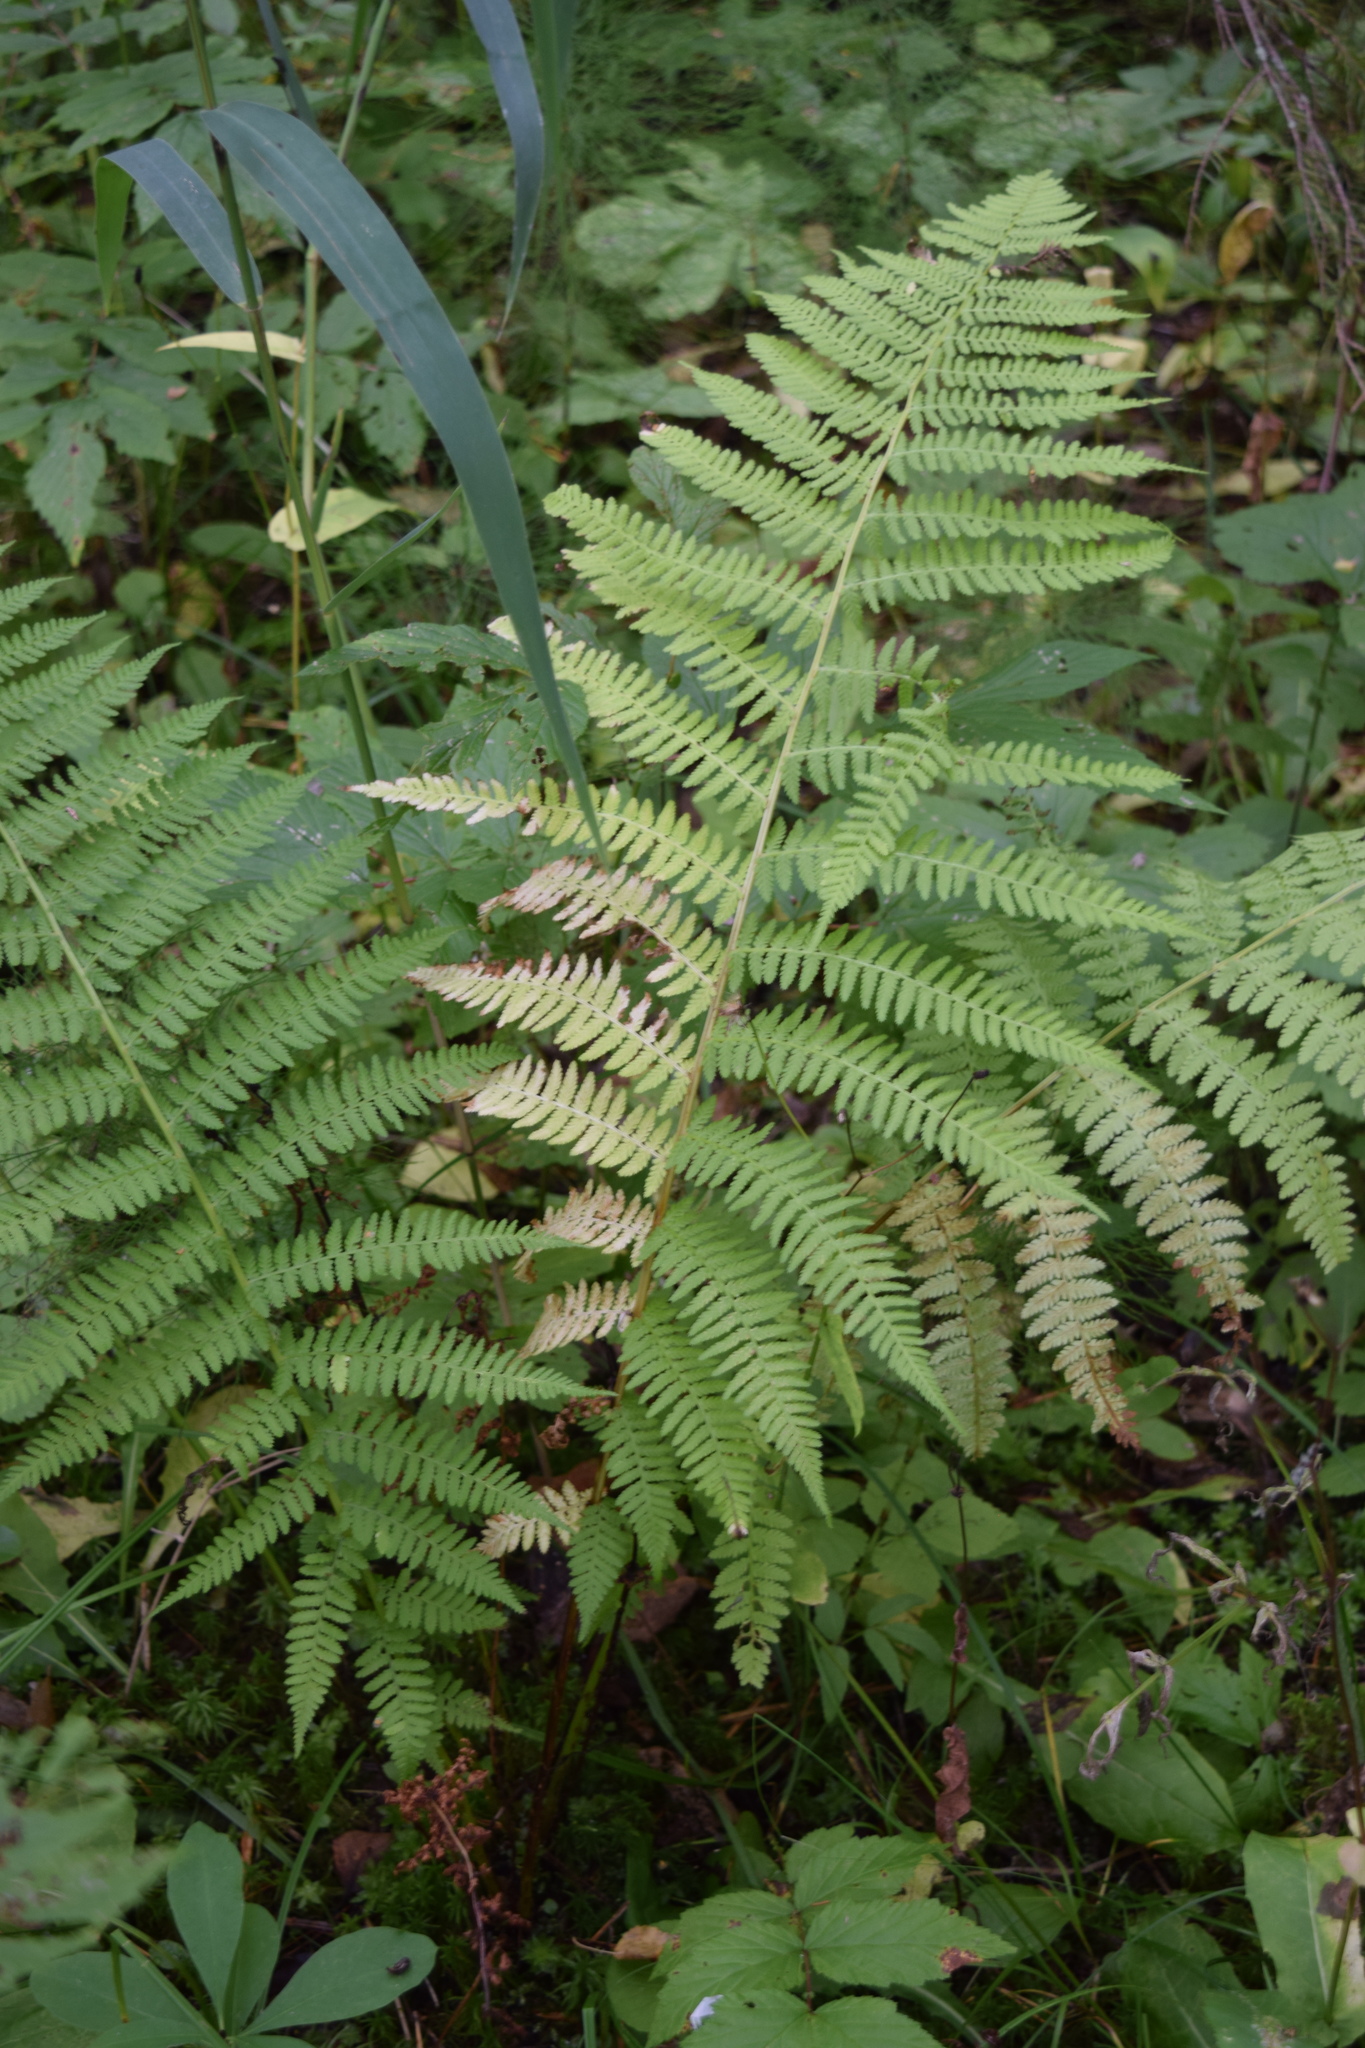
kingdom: Plantae
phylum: Tracheophyta
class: Polypodiopsida
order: Polypodiales
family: Athyriaceae
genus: Athyrium
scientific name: Athyrium filix-femina
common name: Lady fern
